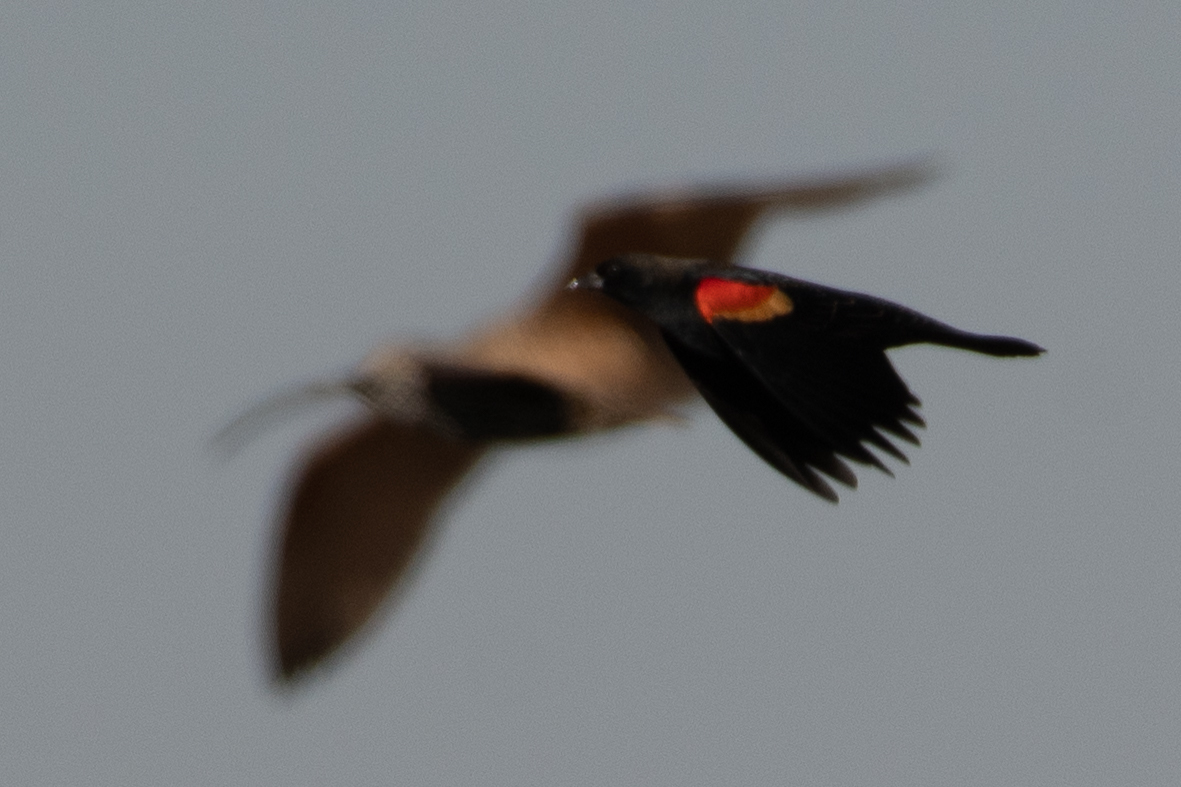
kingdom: Animalia
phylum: Chordata
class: Aves
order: Passeriformes
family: Icteridae
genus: Agelaius
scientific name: Agelaius phoeniceus
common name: Red-winged blackbird
